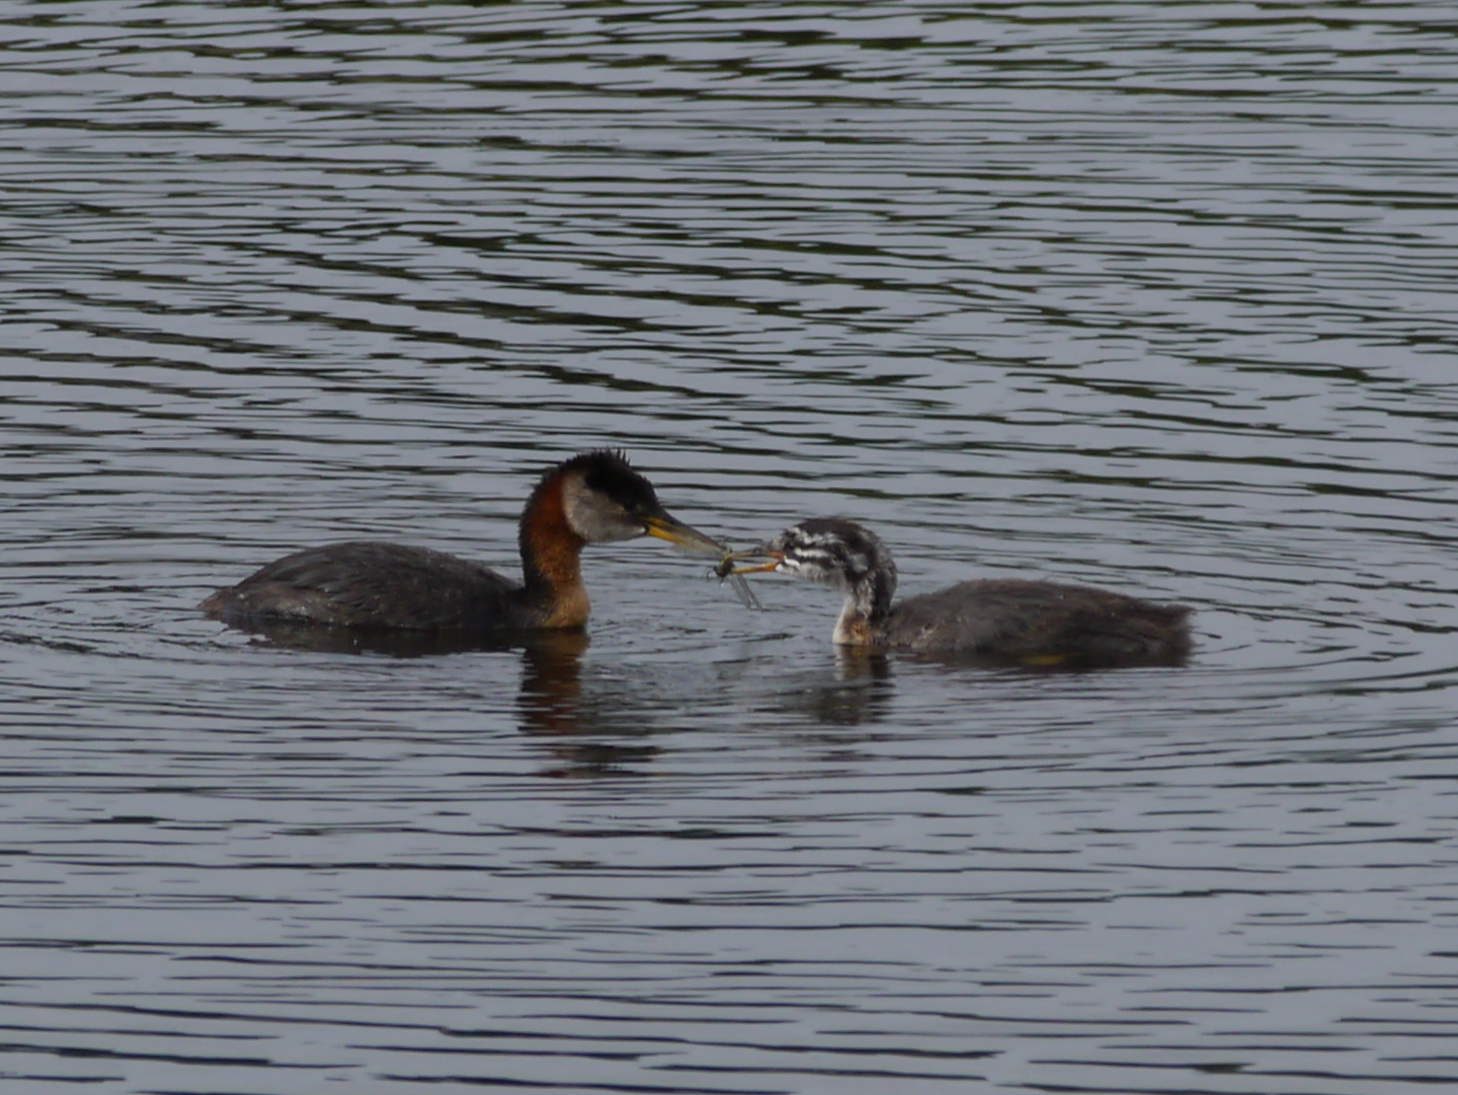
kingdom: Animalia
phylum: Chordata
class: Aves
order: Podicipediformes
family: Podicipedidae
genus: Podiceps
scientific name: Podiceps grisegena
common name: Red-necked grebe
